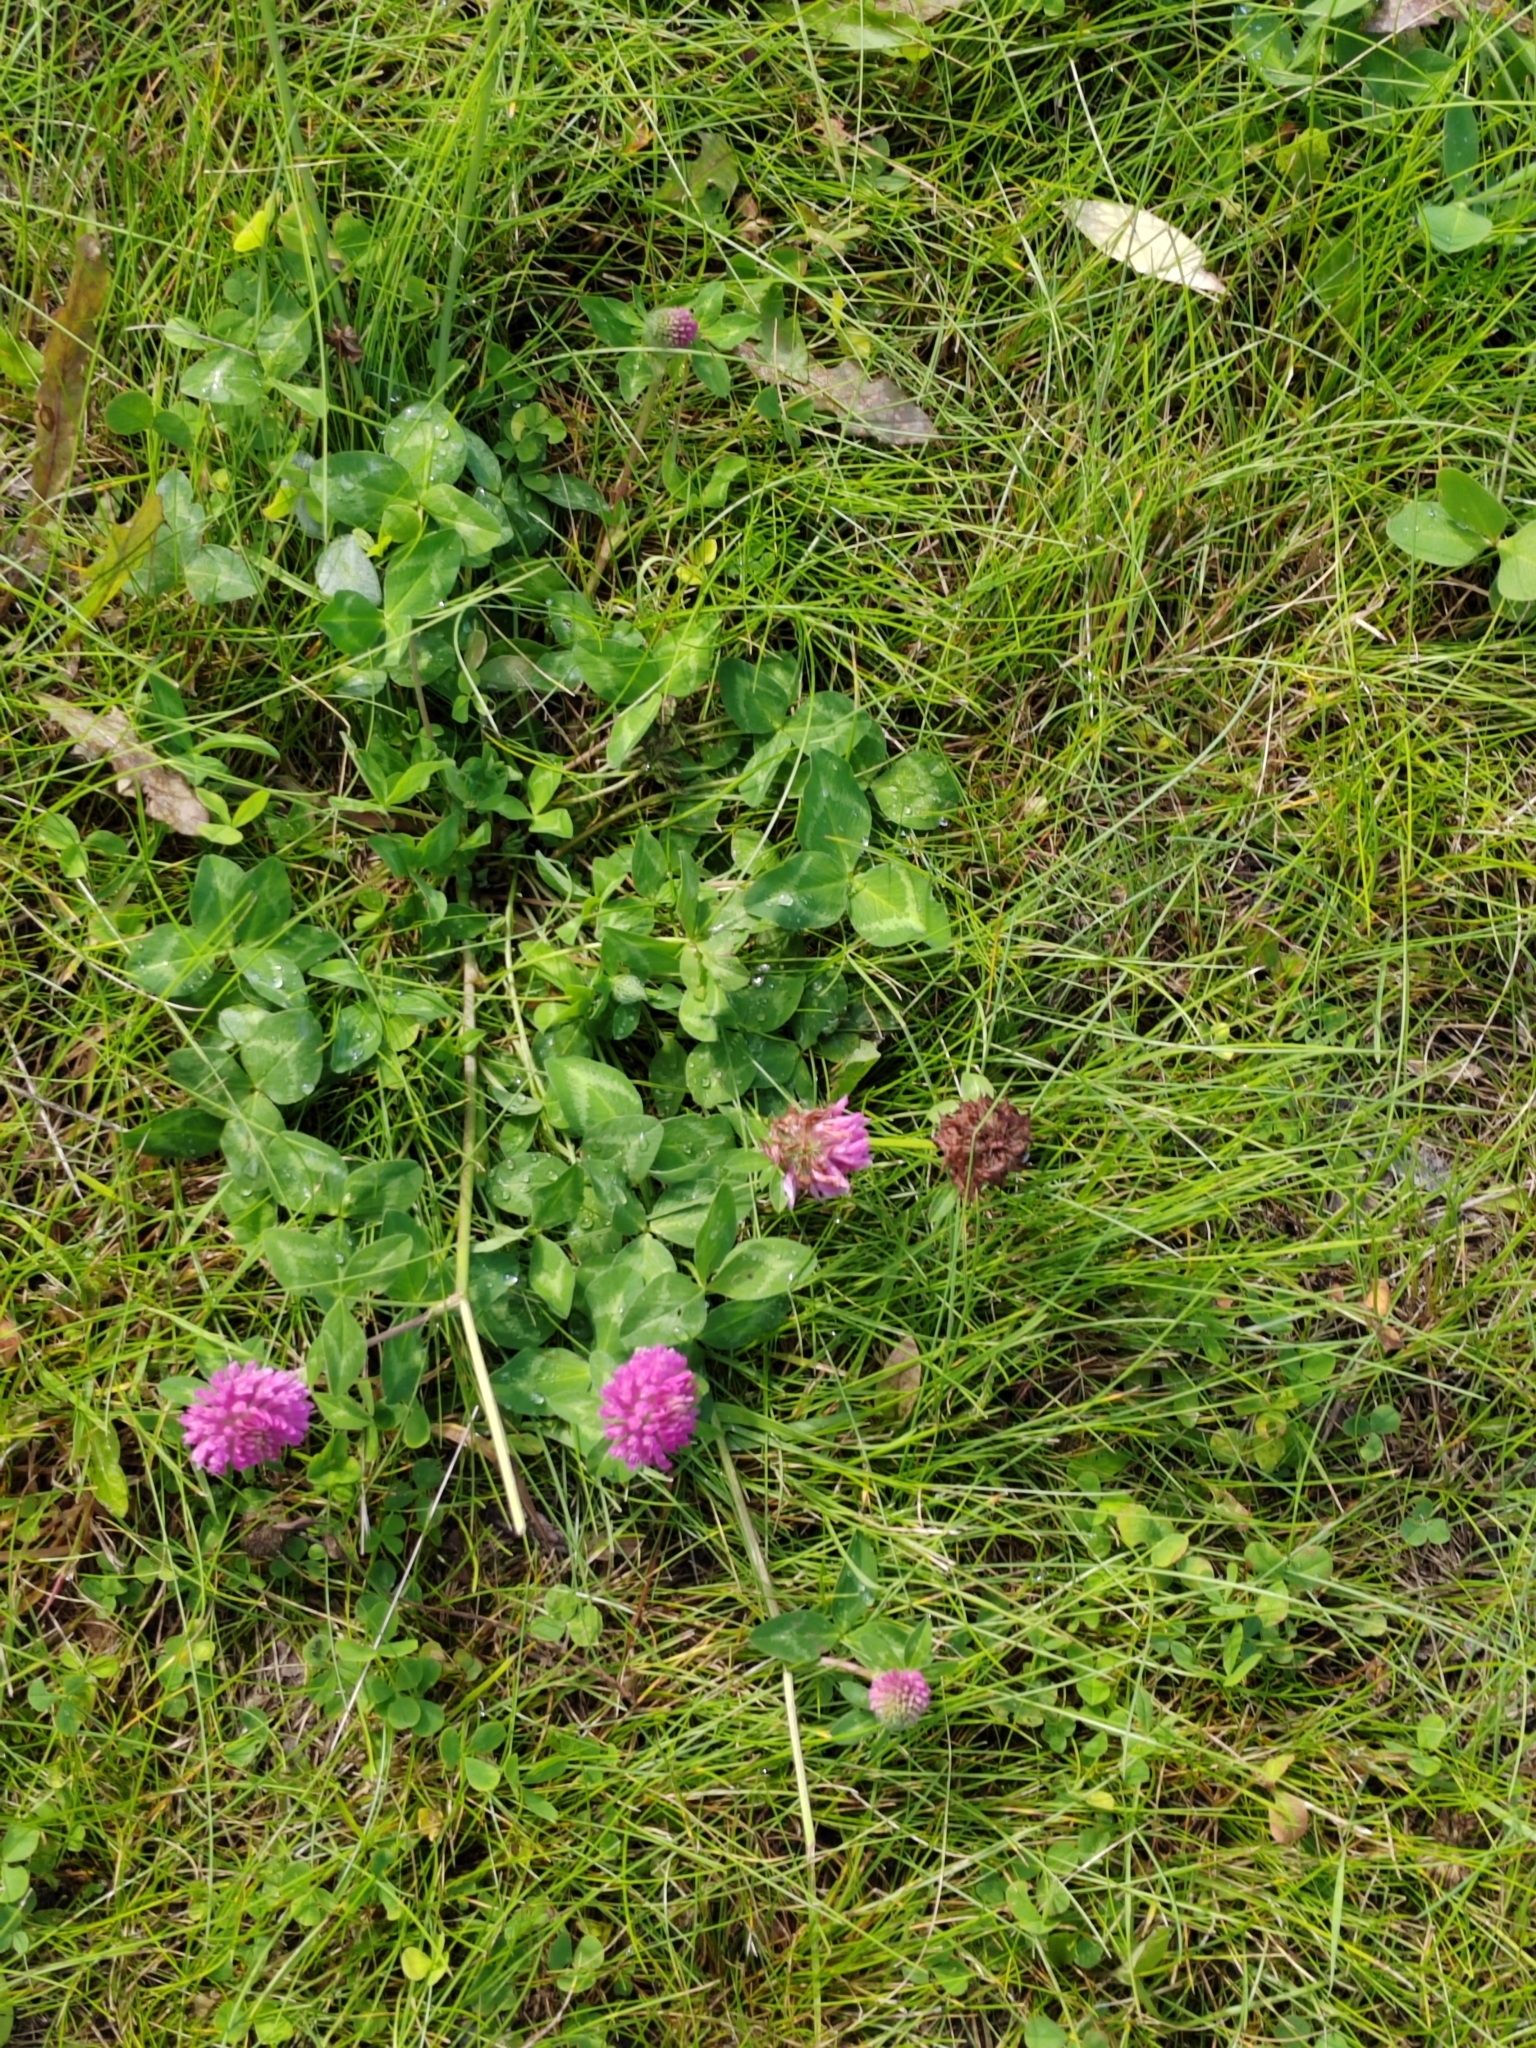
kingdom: Plantae
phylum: Tracheophyta
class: Magnoliopsida
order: Fabales
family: Fabaceae
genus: Trifolium
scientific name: Trifolium pratense
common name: Red clover
